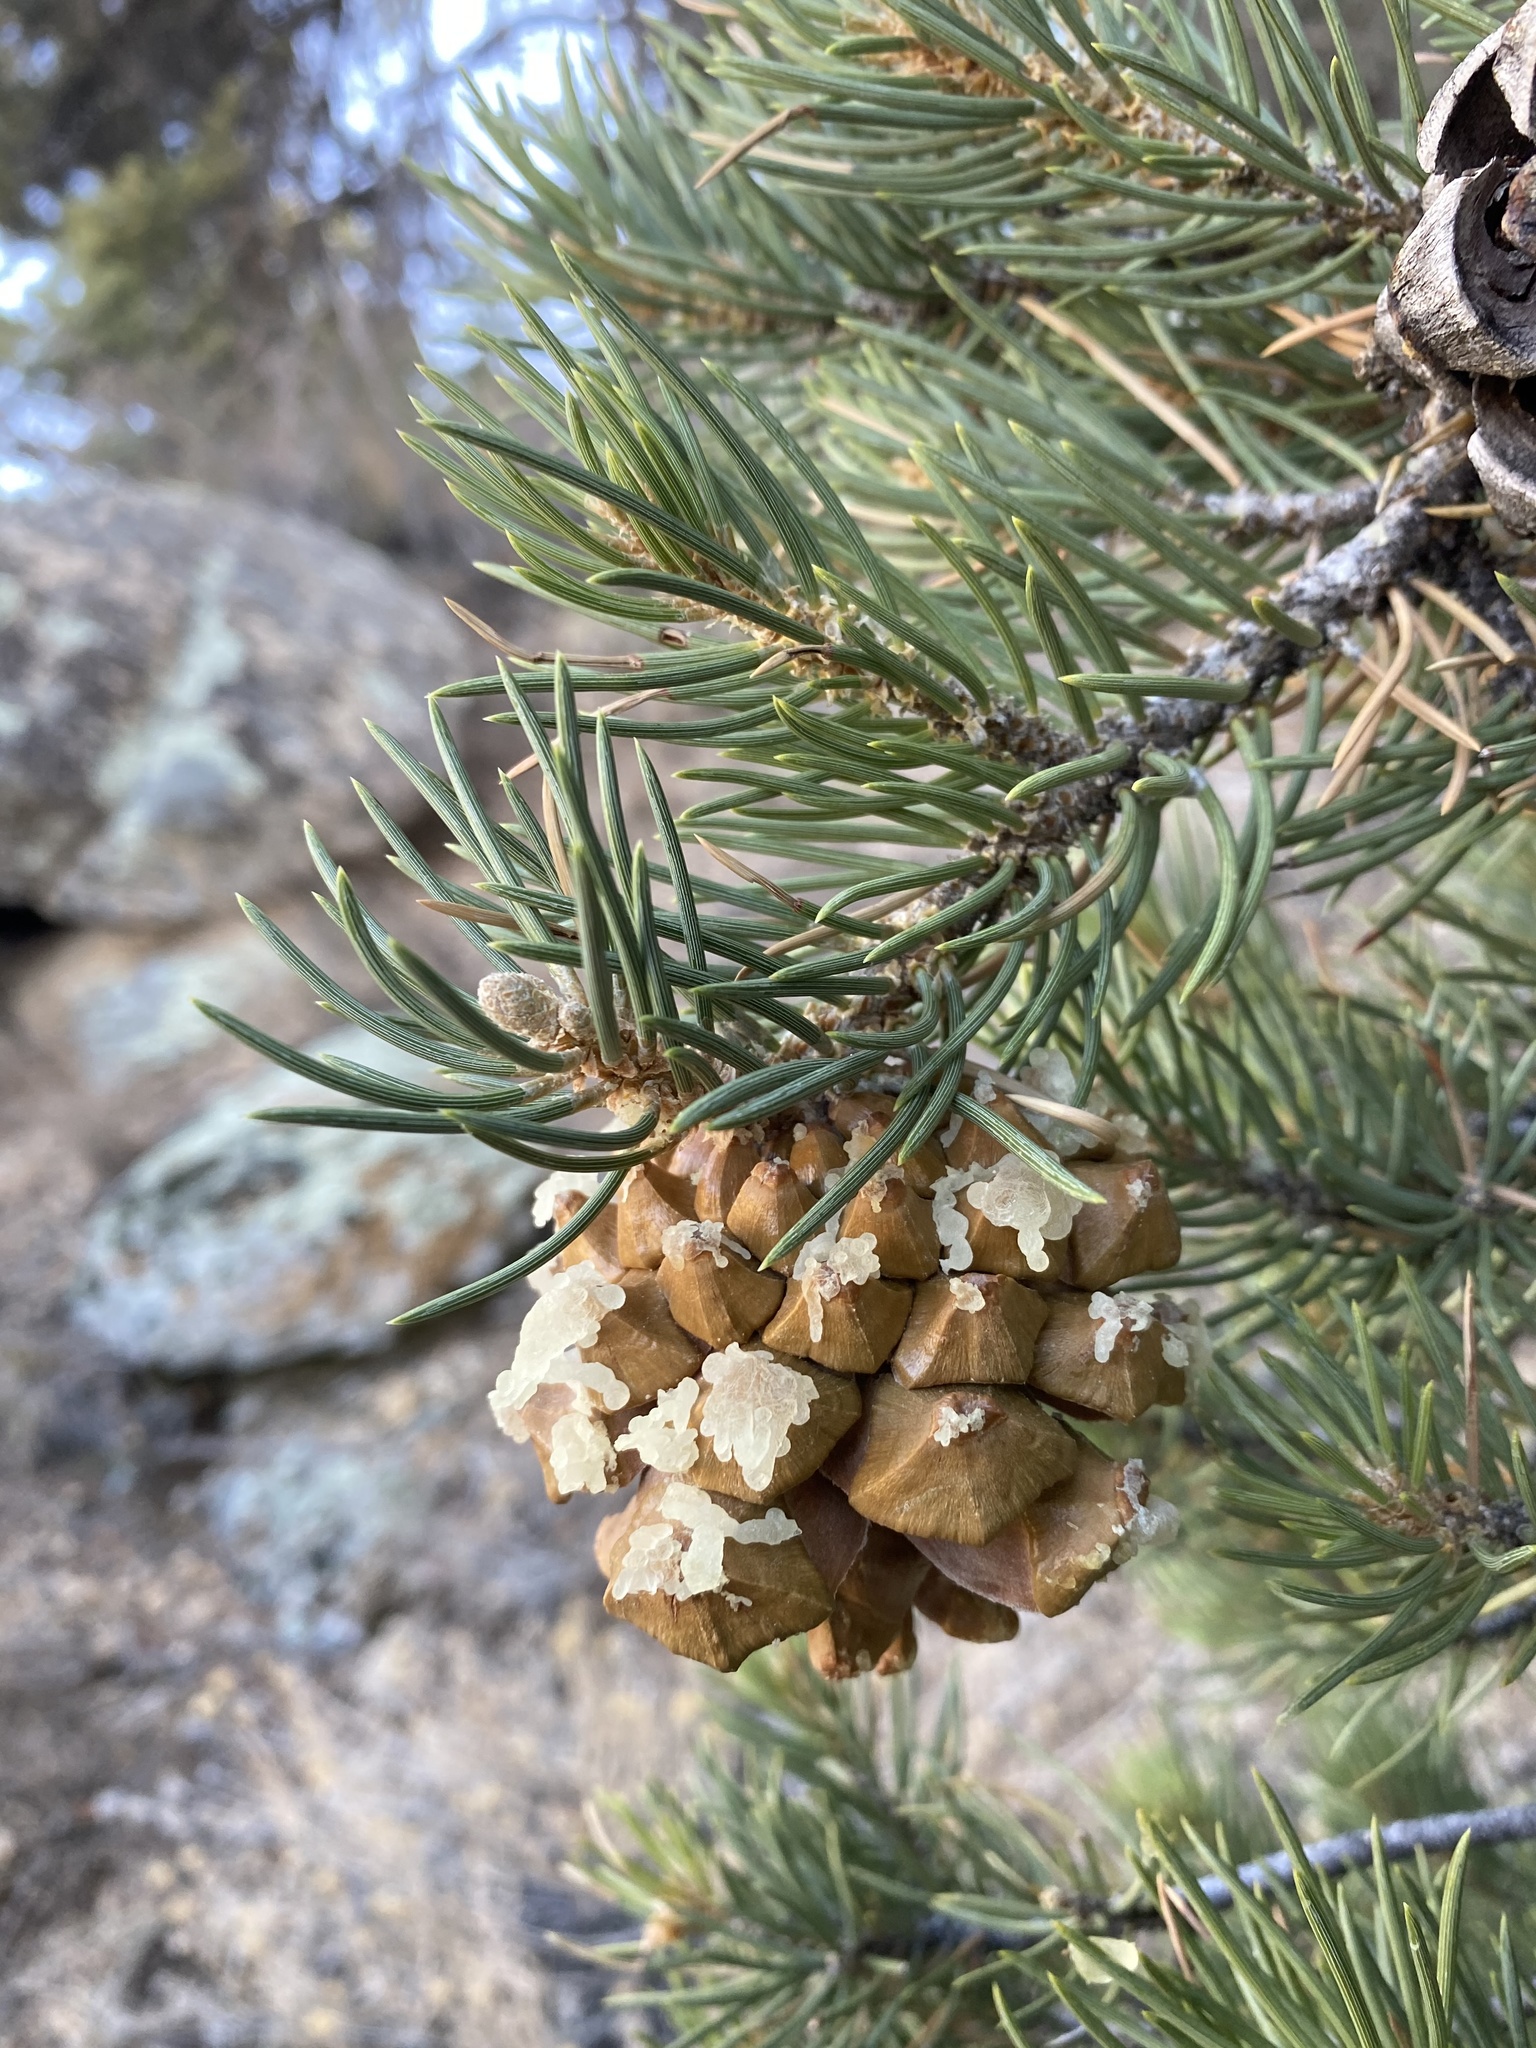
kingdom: Plantae
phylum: Tracheophyta
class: Pinopsida
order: Pinales
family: Pinaceae
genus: Pinus
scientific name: Pinus monophylla
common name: One-leaved nut pine
